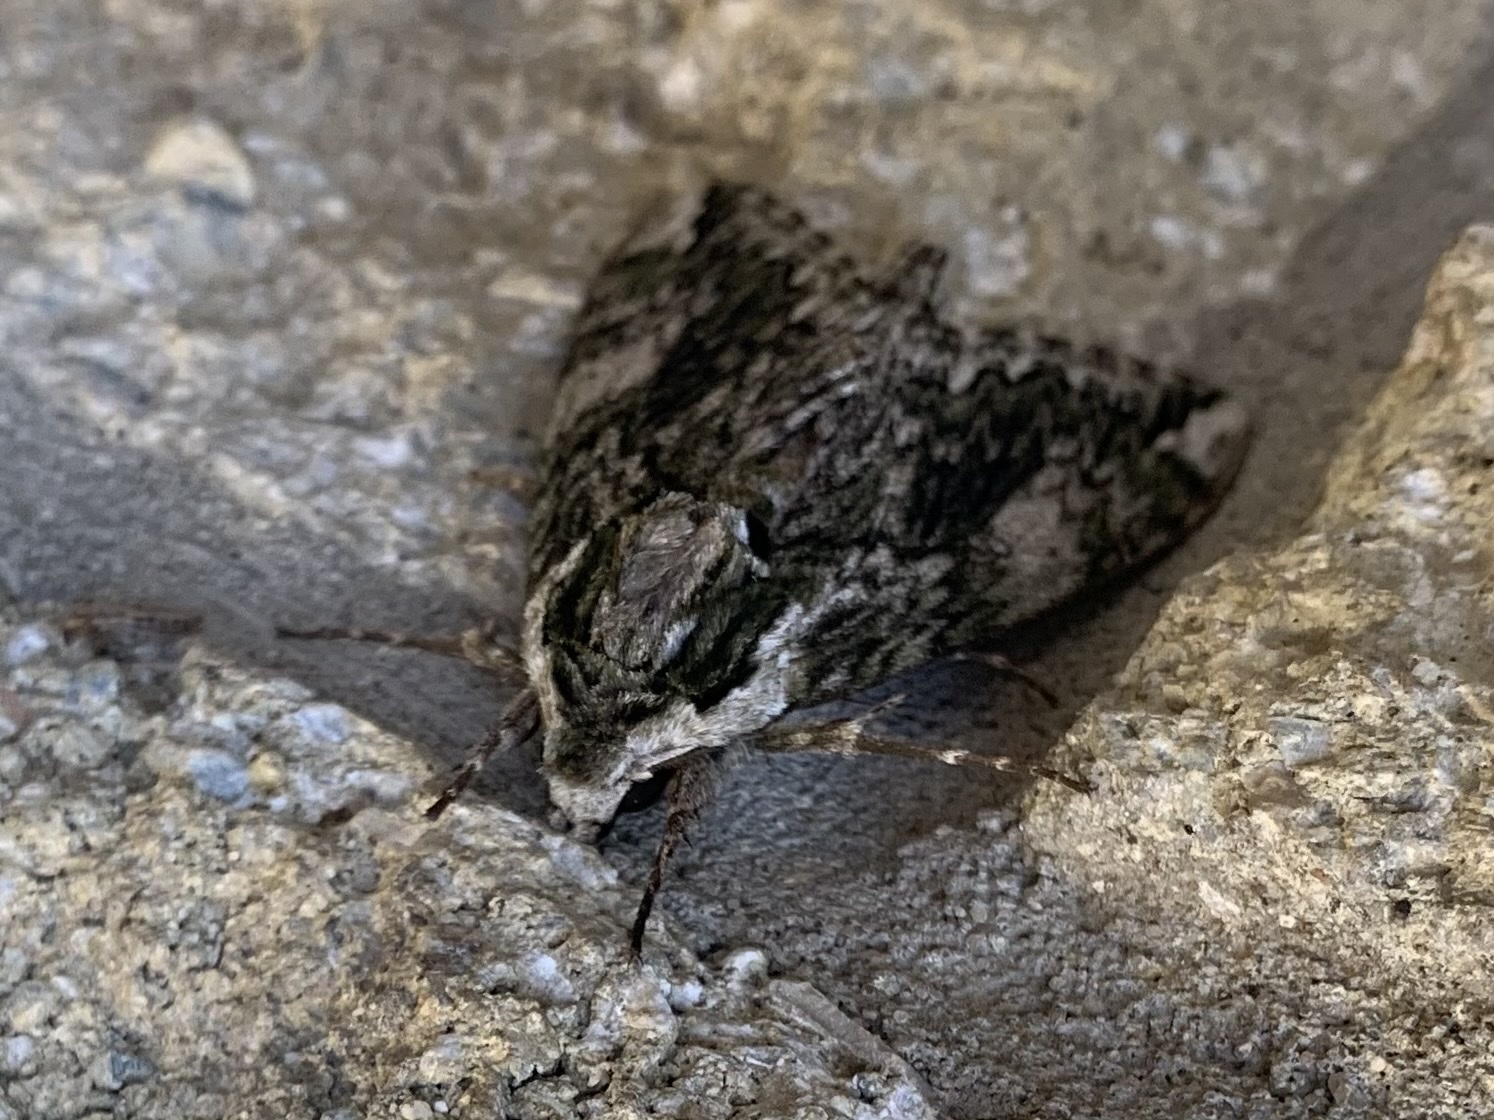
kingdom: Animalia
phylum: Arthropoda
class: Insecta
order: Lepidoptera
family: Sphingidae
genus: Ceratomia
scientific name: Ceratomia hageni
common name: Hagen's sphinx
